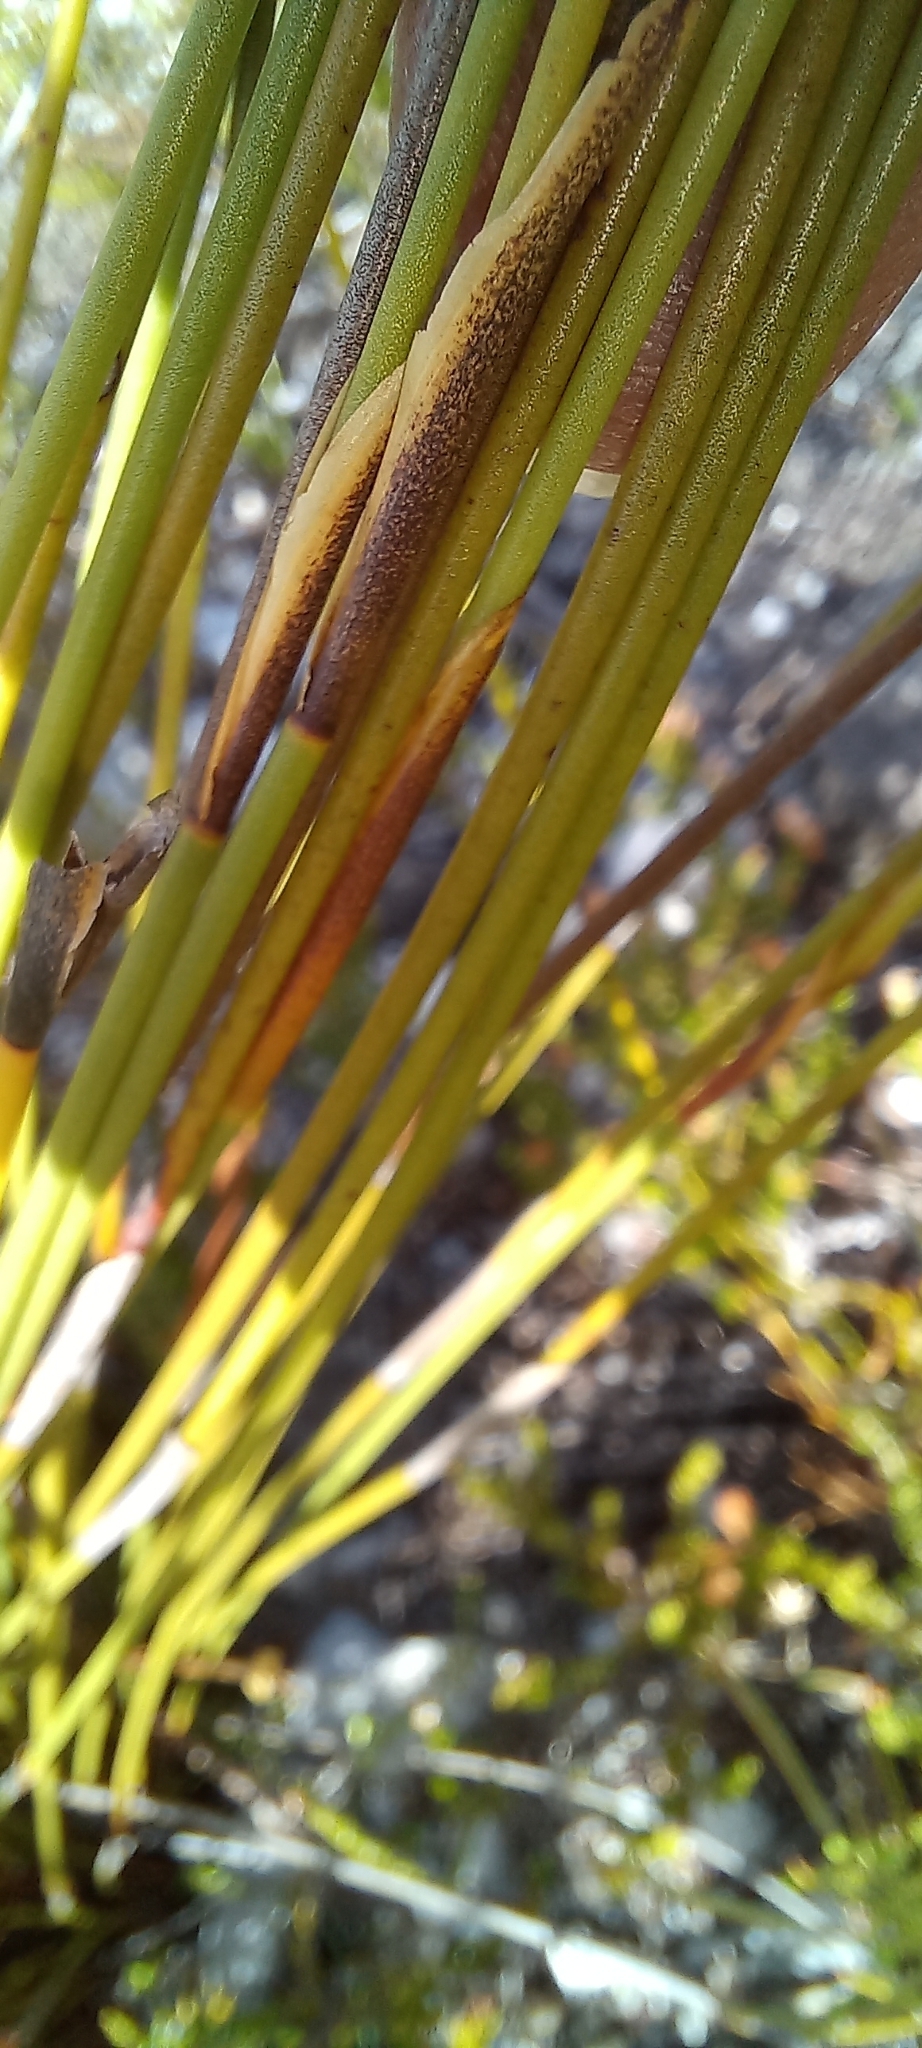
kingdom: Plantae
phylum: Tracheophyta
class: Liliopsida
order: Poales
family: Restionaceae
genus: Hypodiscus
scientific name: Hypodiscus aristatus
